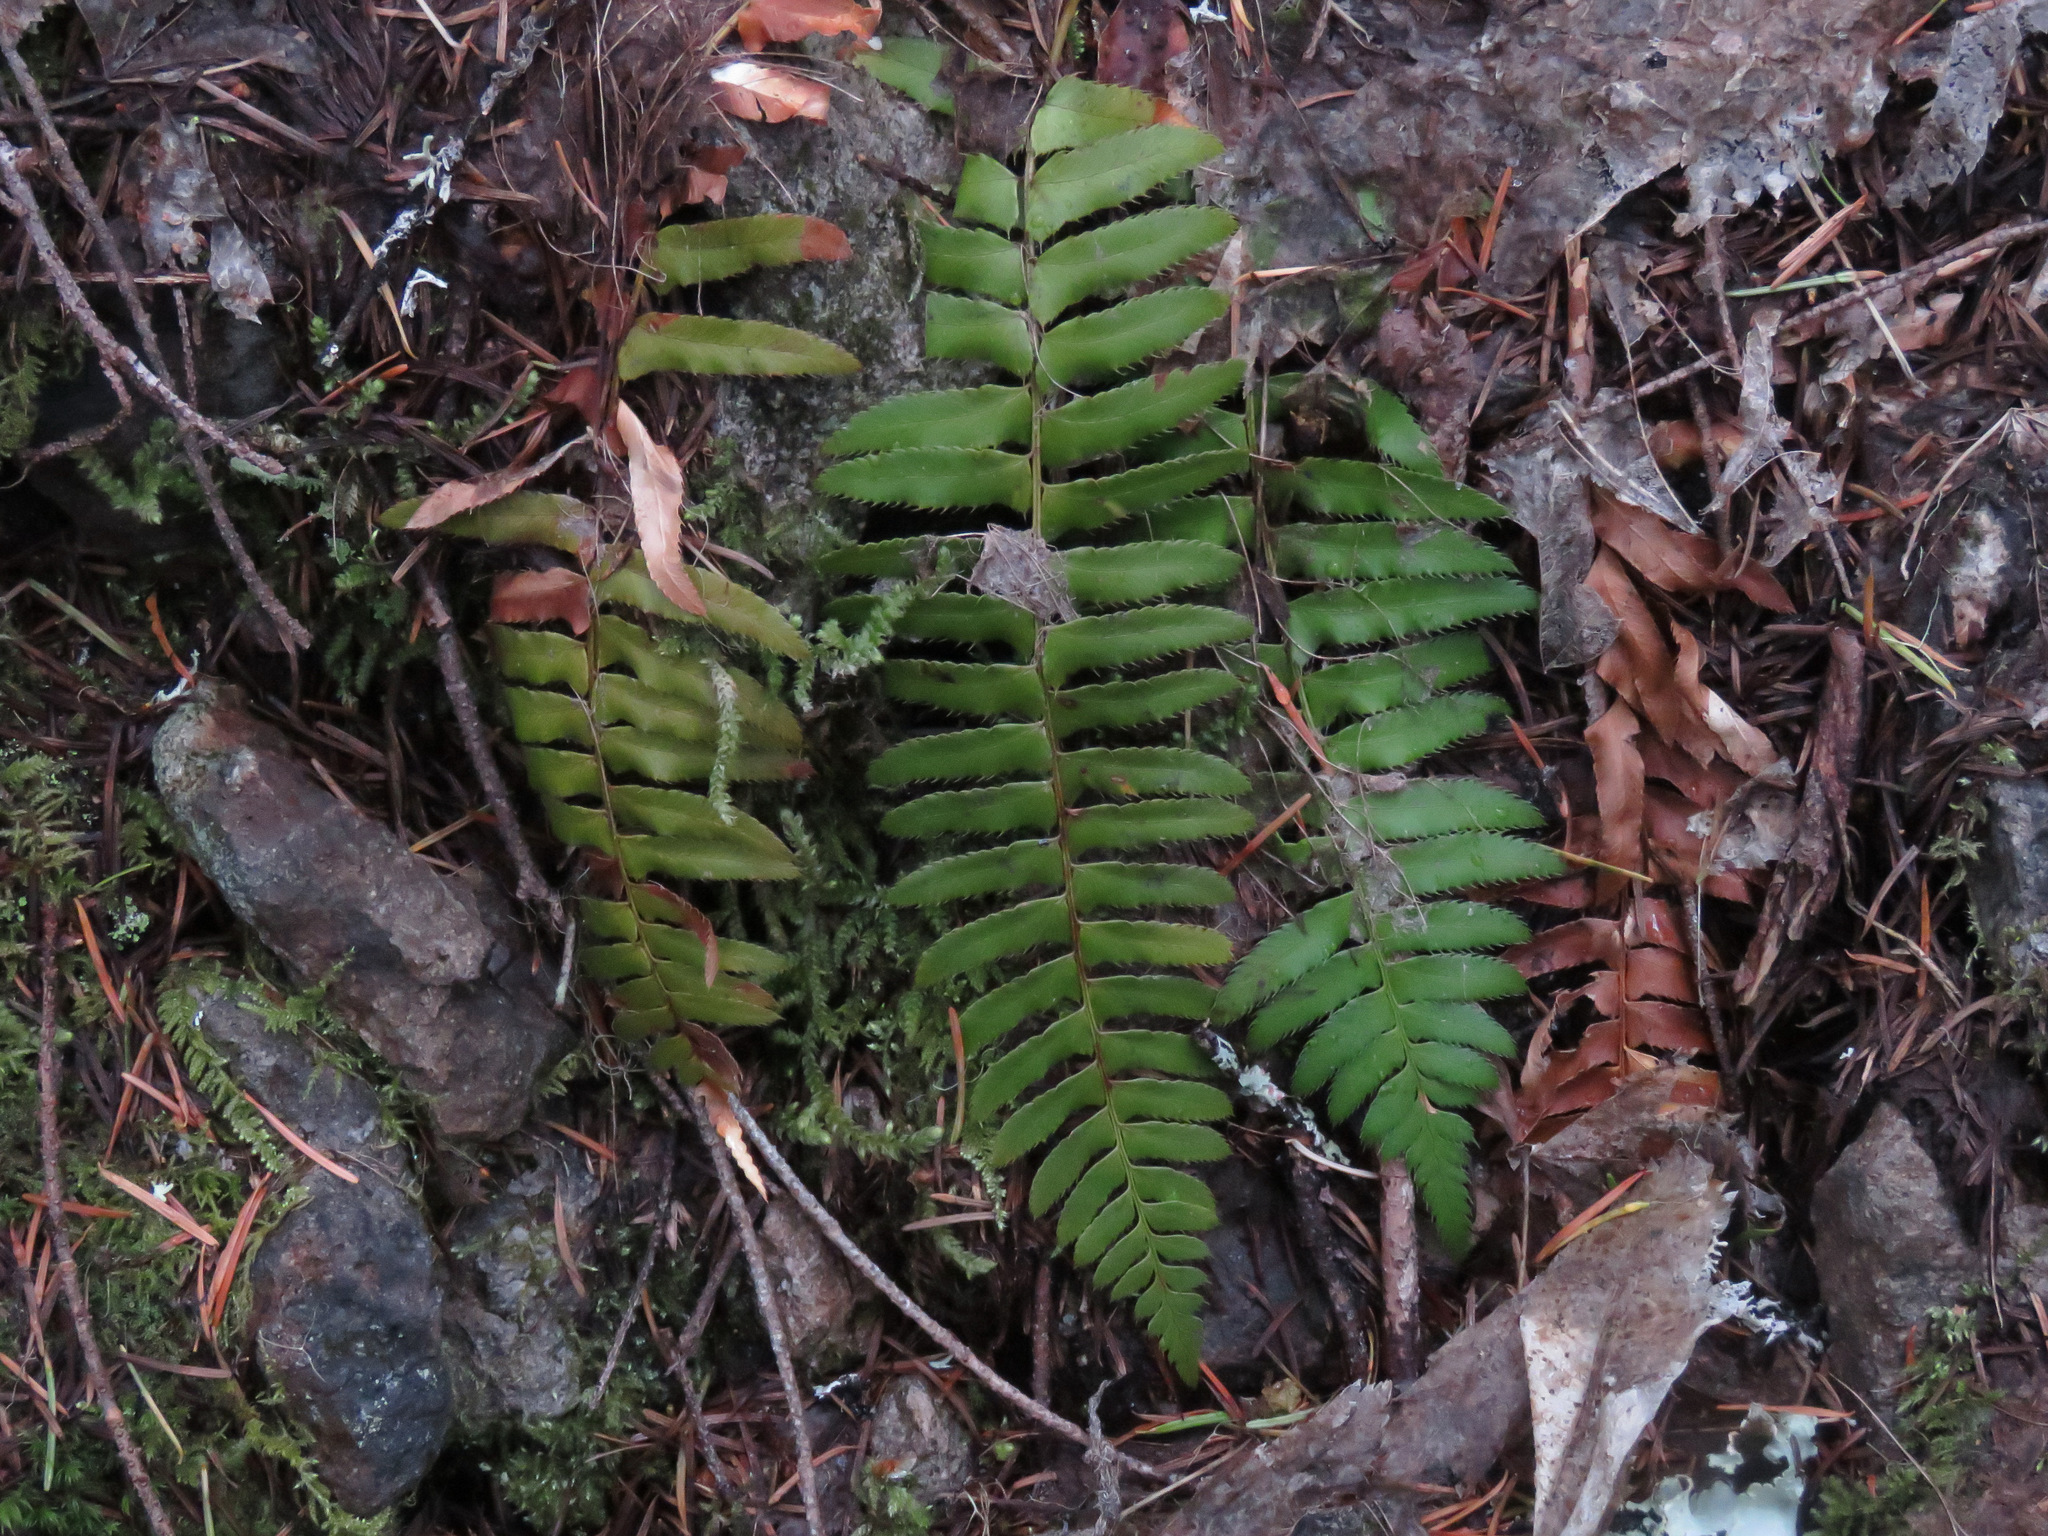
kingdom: Plantae
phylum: Tracheophyta
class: Polypodiopsida
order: Polypodiales
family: Dryopteridaceae
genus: Polystichum
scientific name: Polystichum munitum
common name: Western sword-fern
